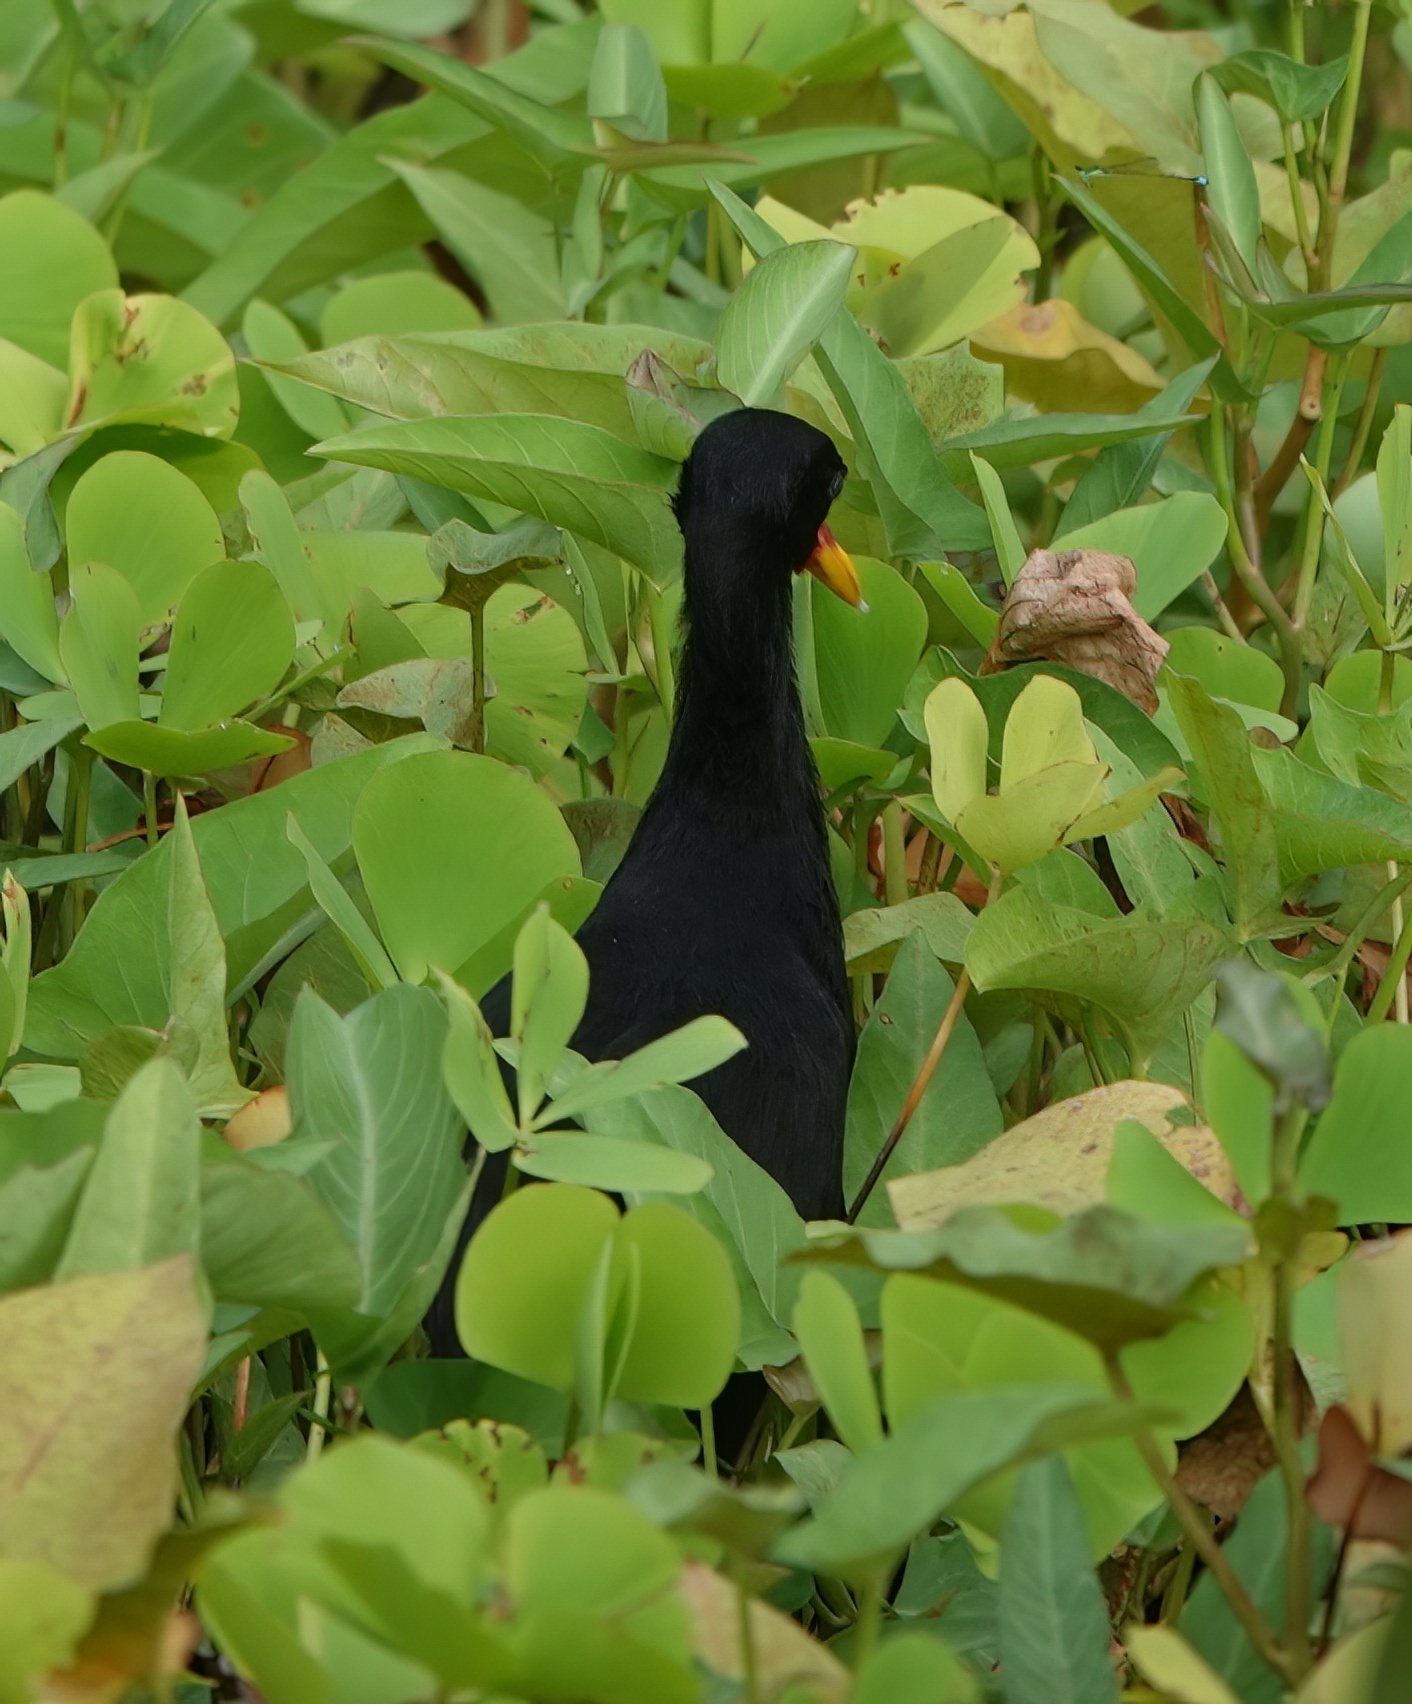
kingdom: Animalia
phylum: Chordata
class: Aves
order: Charadriiformes
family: Jacanidae
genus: Jacana
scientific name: Jacana jacana
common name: Wattled jacana
